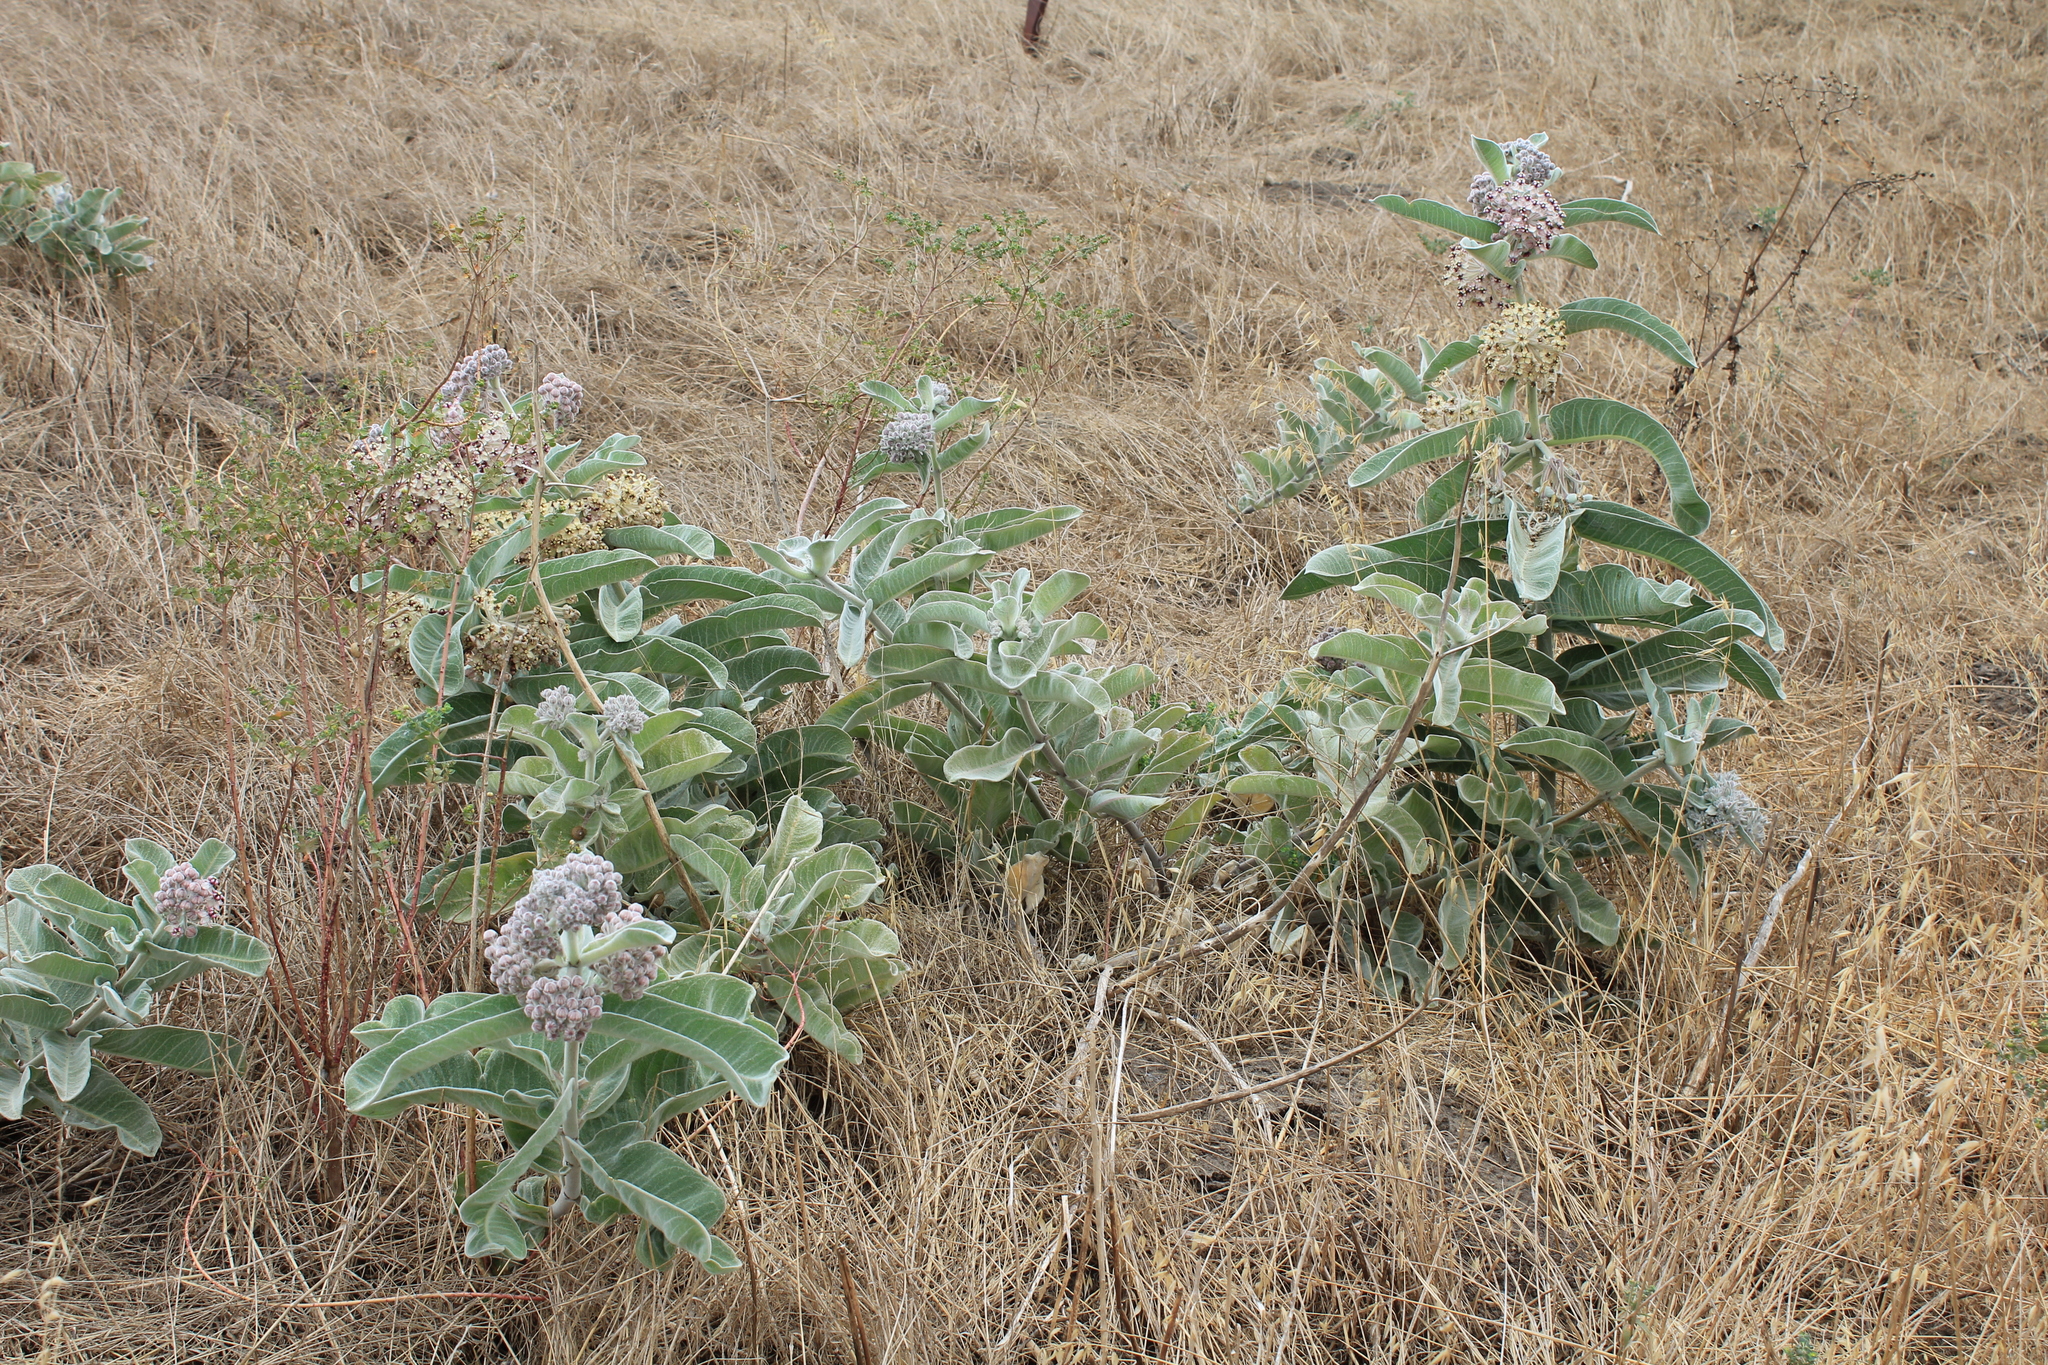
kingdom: Plantae
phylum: Tracheophyta
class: Magnoliopsida
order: Gentianales
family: Apocynaceae
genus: Asclepias
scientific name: Asclepias eriocarpa
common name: Indian milkweed
